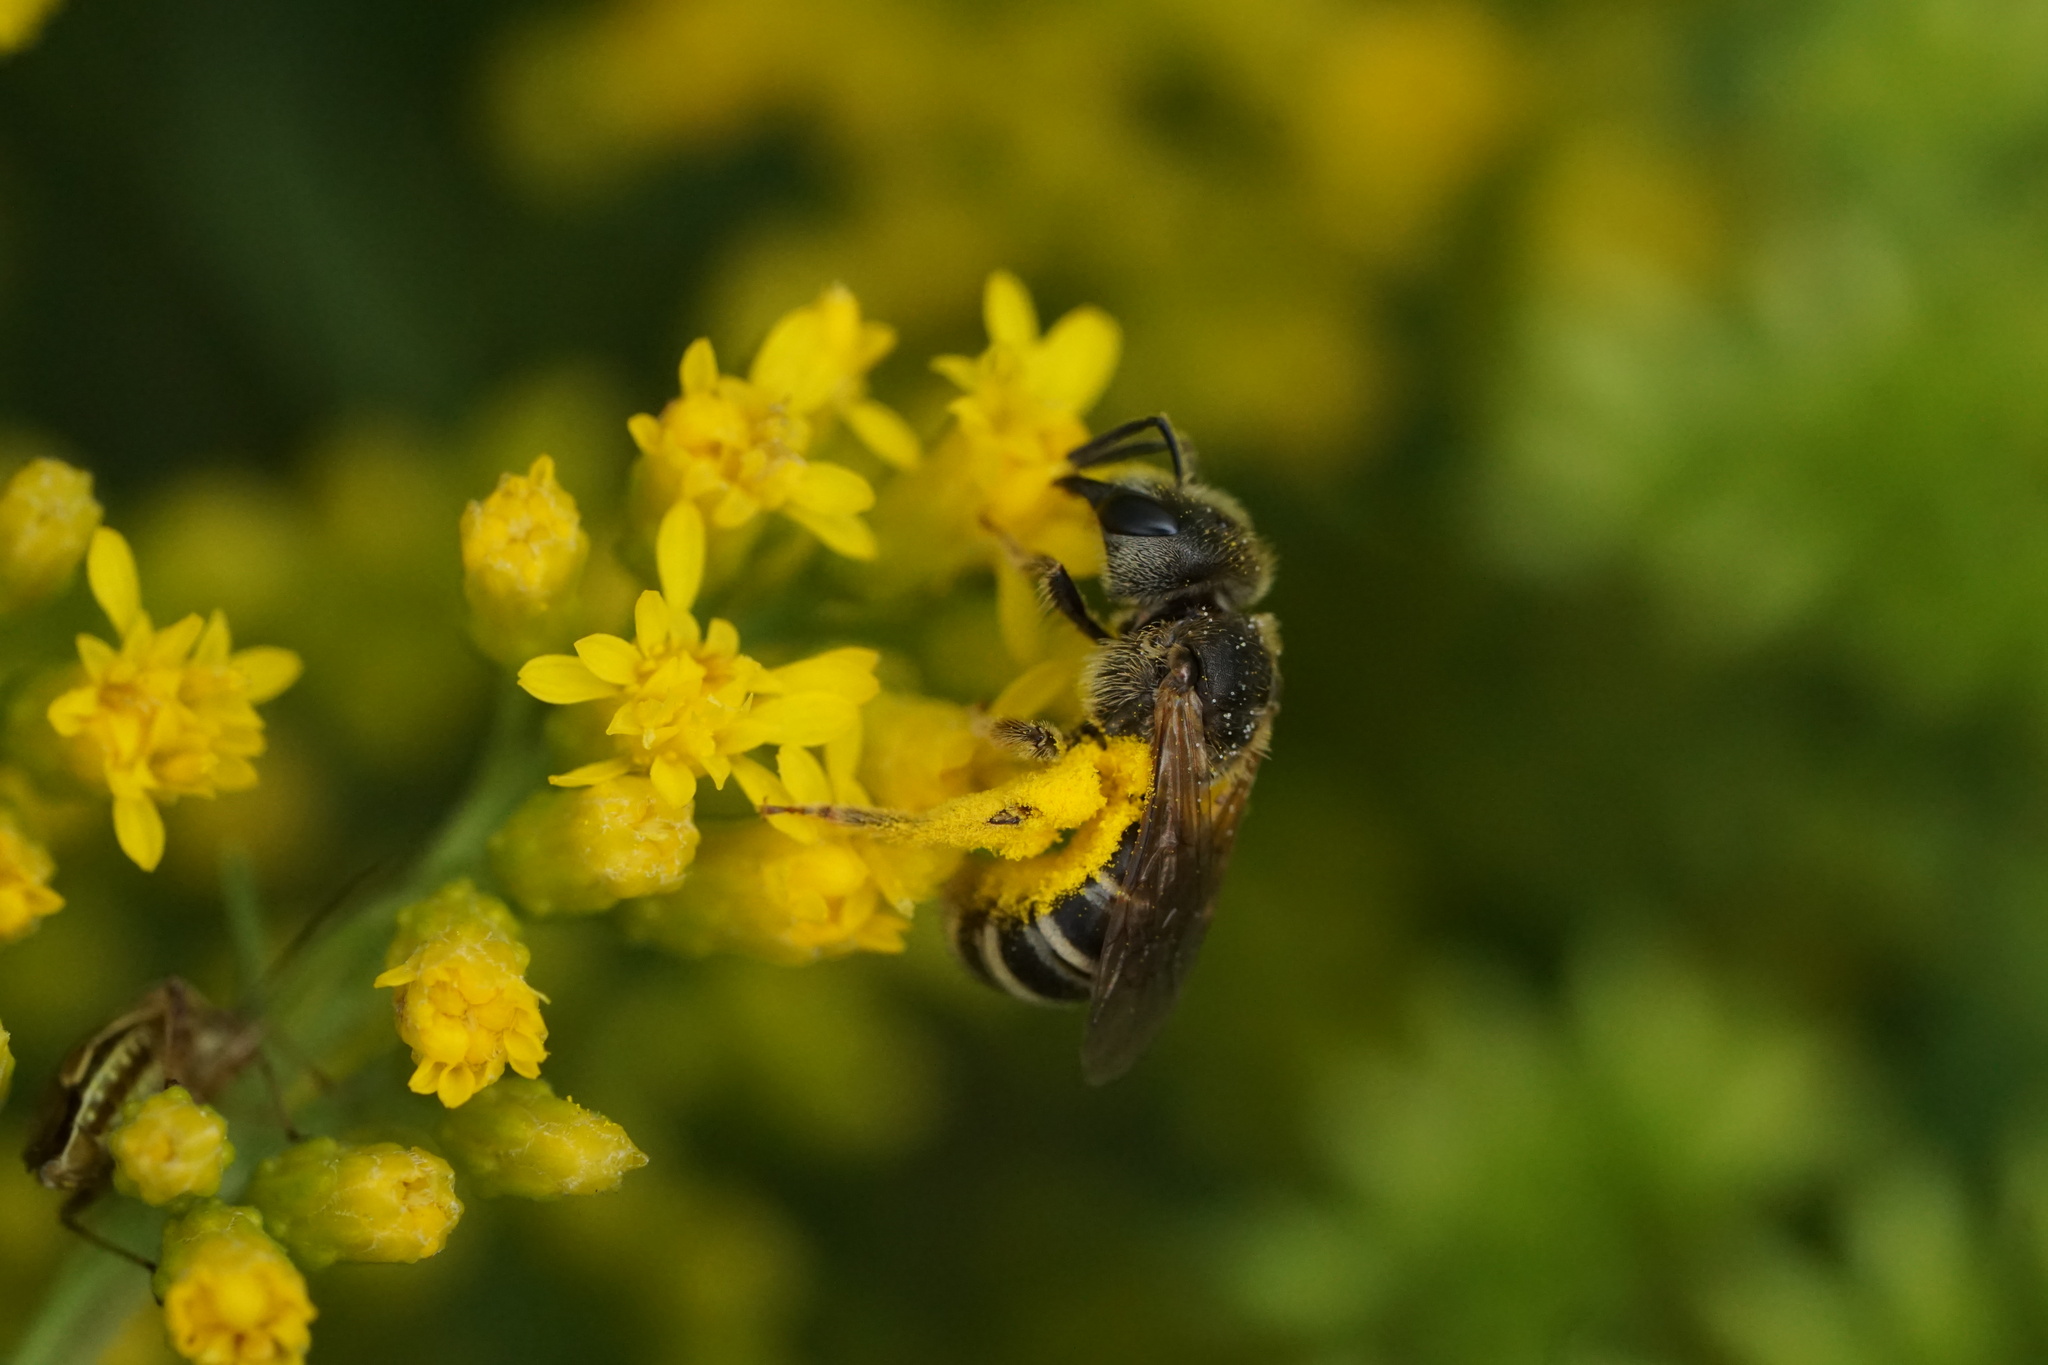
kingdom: Animalia
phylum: Arthropoda
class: Insecta
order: Hymenoptera
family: Halictidae
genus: Halictus
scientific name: Halictus ligatus
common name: Ligated furrow bee
